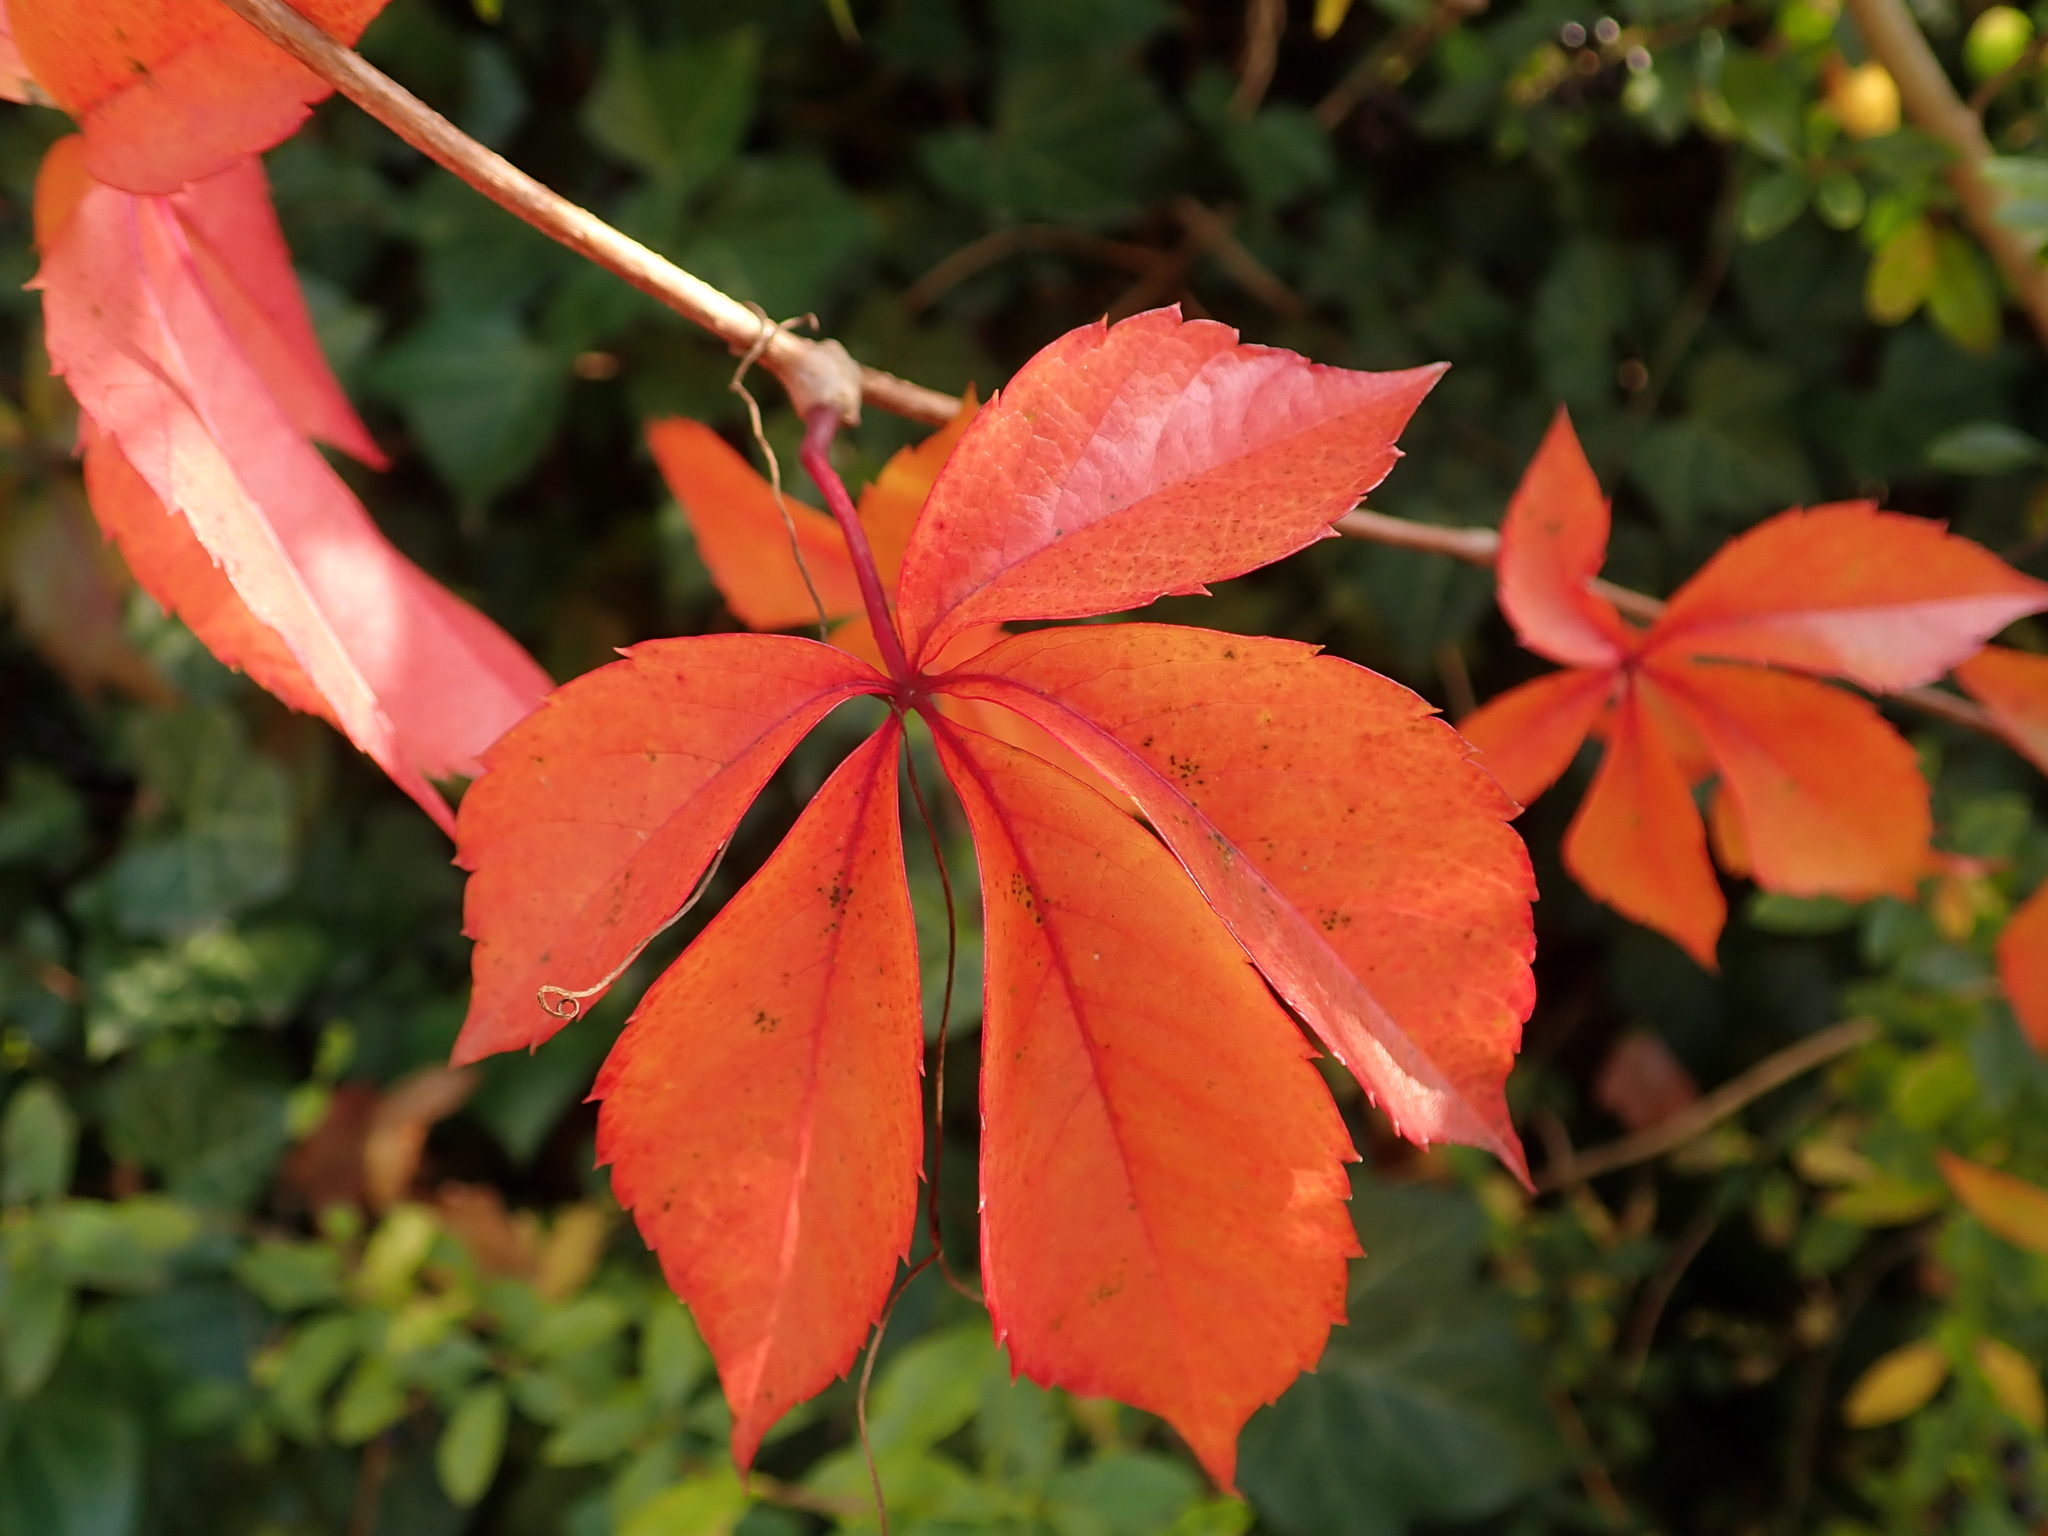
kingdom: Plantae
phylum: Tracheophyta
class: Magnoliopsida
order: Vitales
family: Vitaceae
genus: Parthenocissus
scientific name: Parthenocissus inserta
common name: False virginia-creeper
